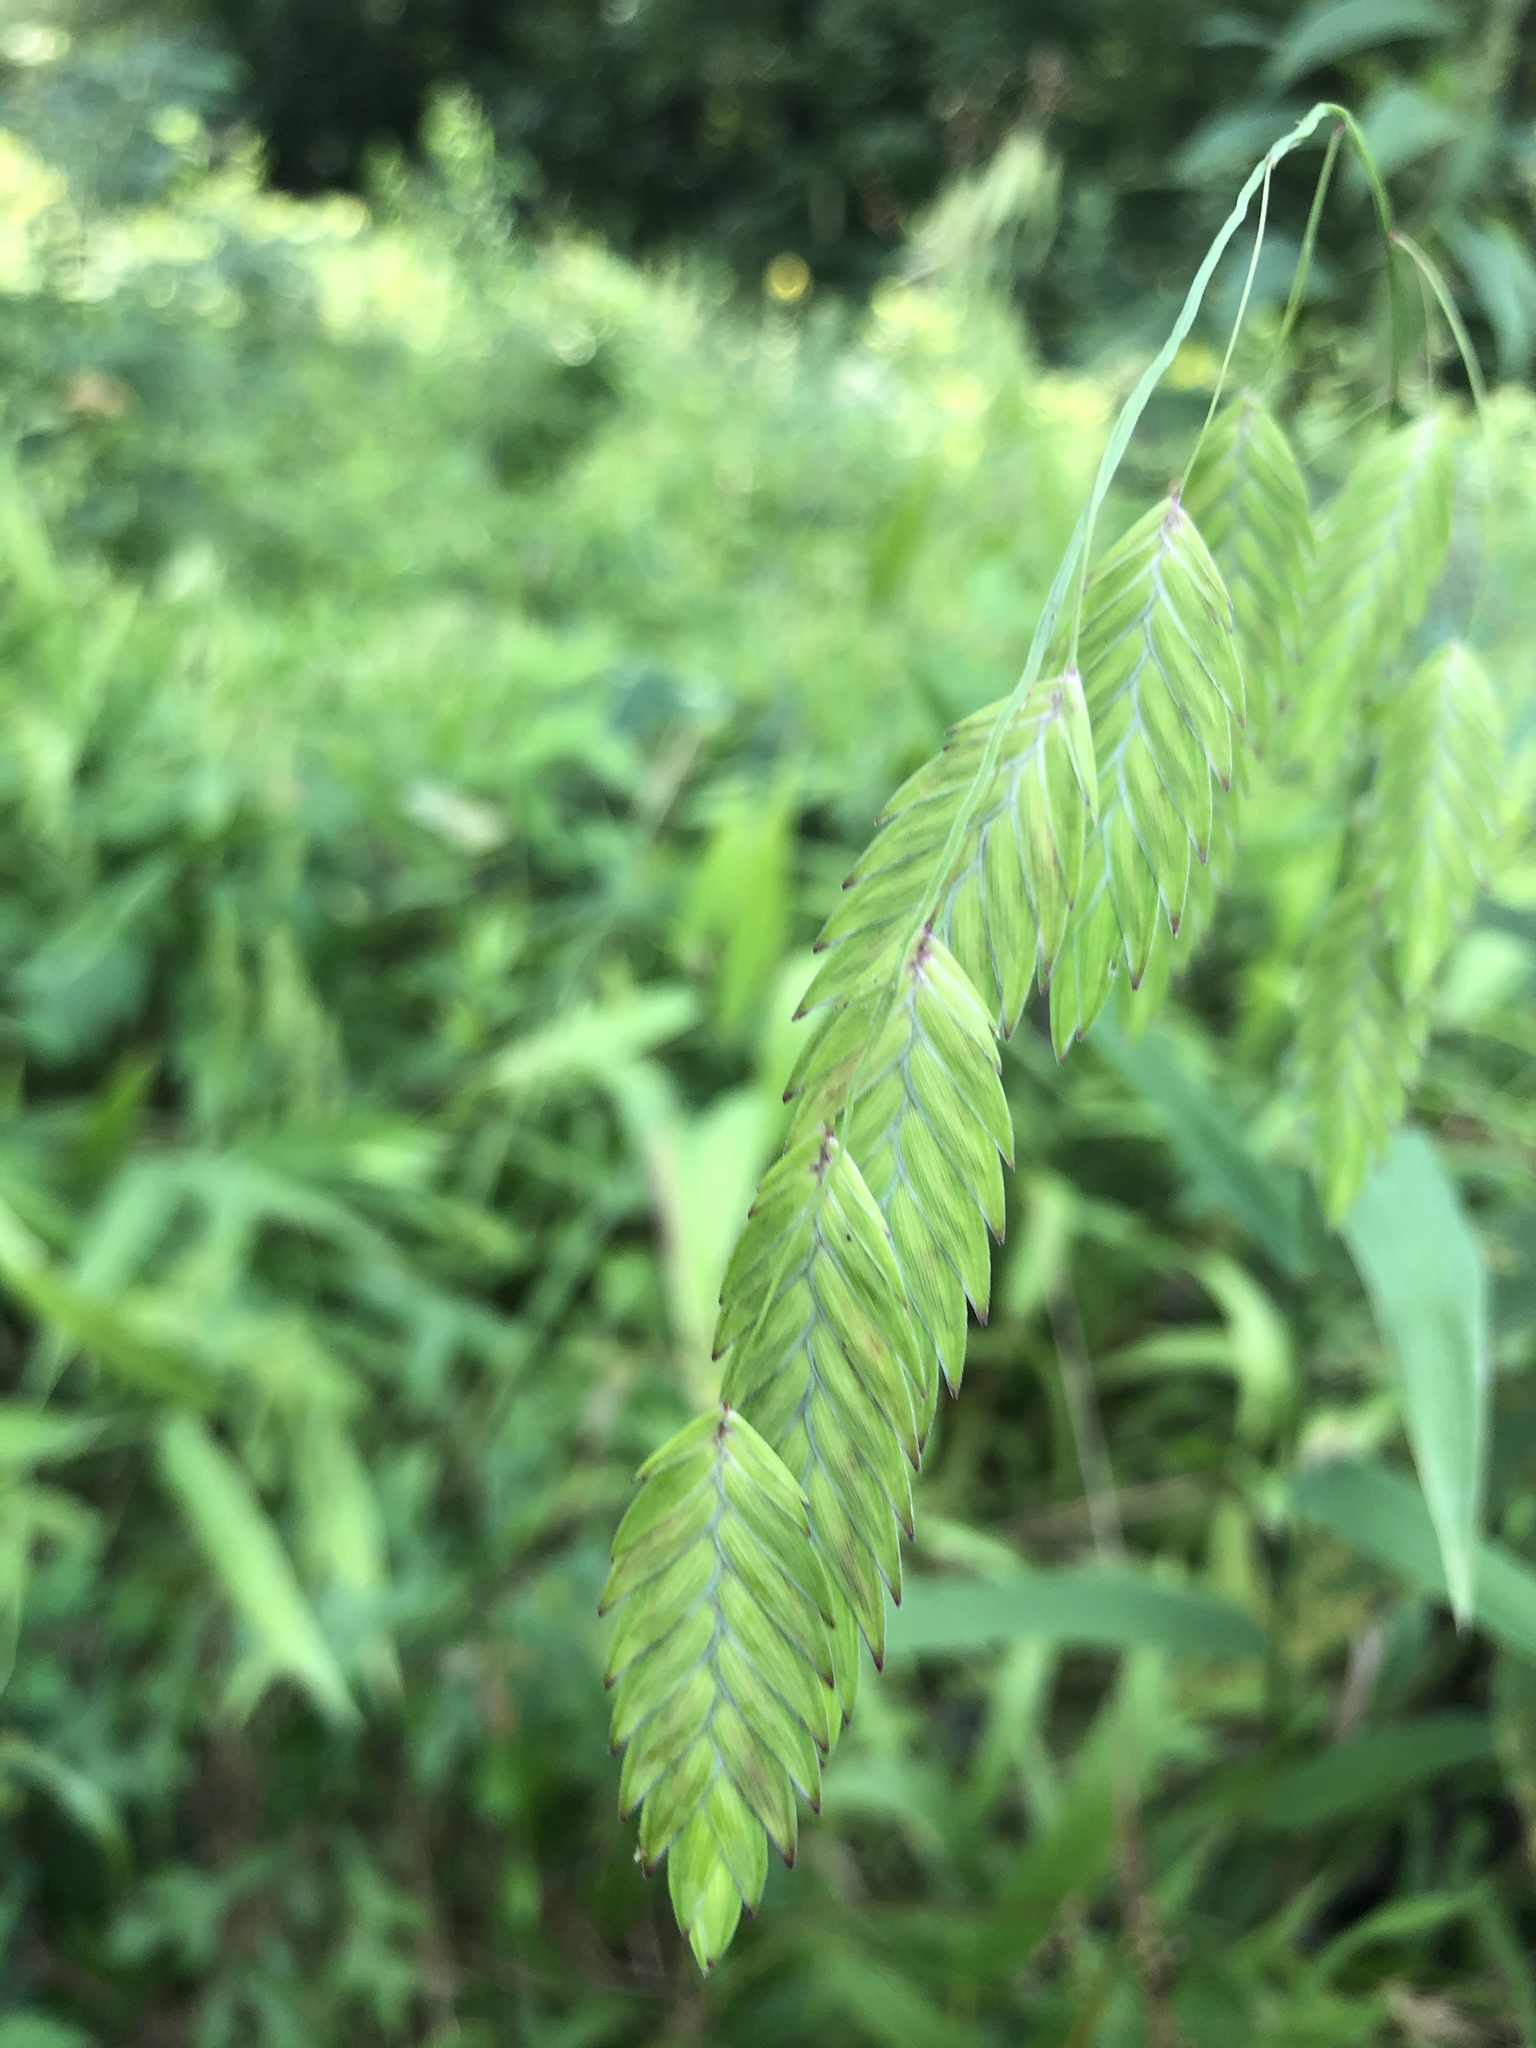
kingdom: Plantae
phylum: Tracheophyta
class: Liliopsida
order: Poales
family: Poaceae
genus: Chasmanthium
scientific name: Chasmanthium latifolium
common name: Broad-leaved chasmanthium
